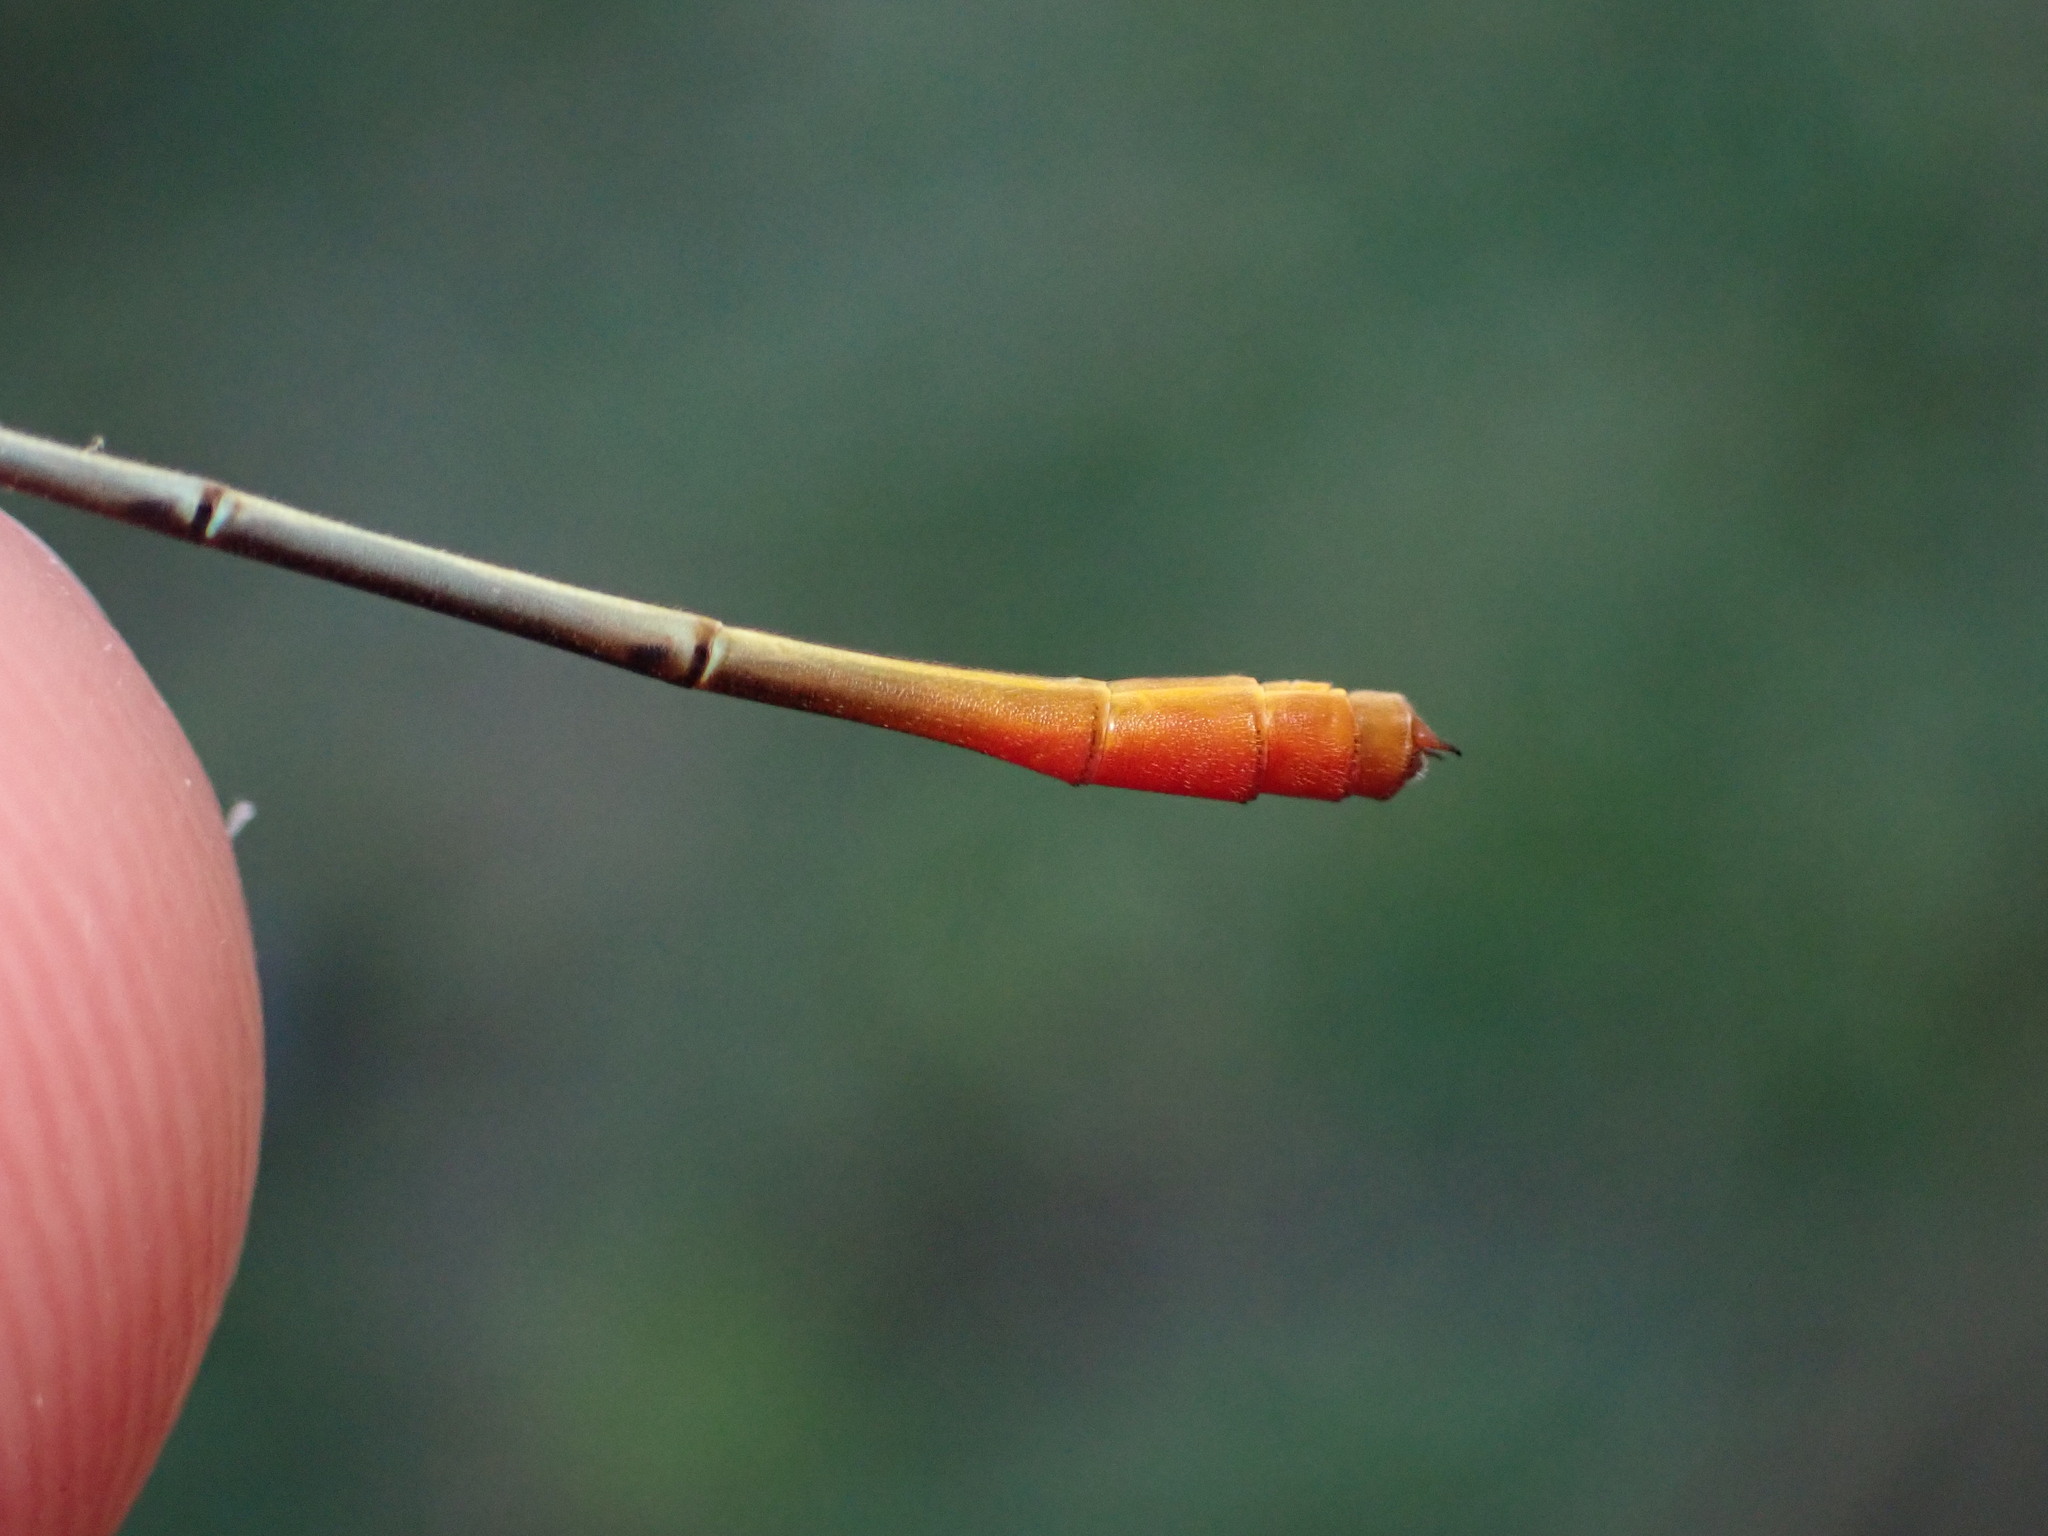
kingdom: Animalia
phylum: Arthropoda
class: Insecta
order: Odonata
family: Coenagrionidae
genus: Ceriagrion
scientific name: Ceriagrion cerinorubellum
